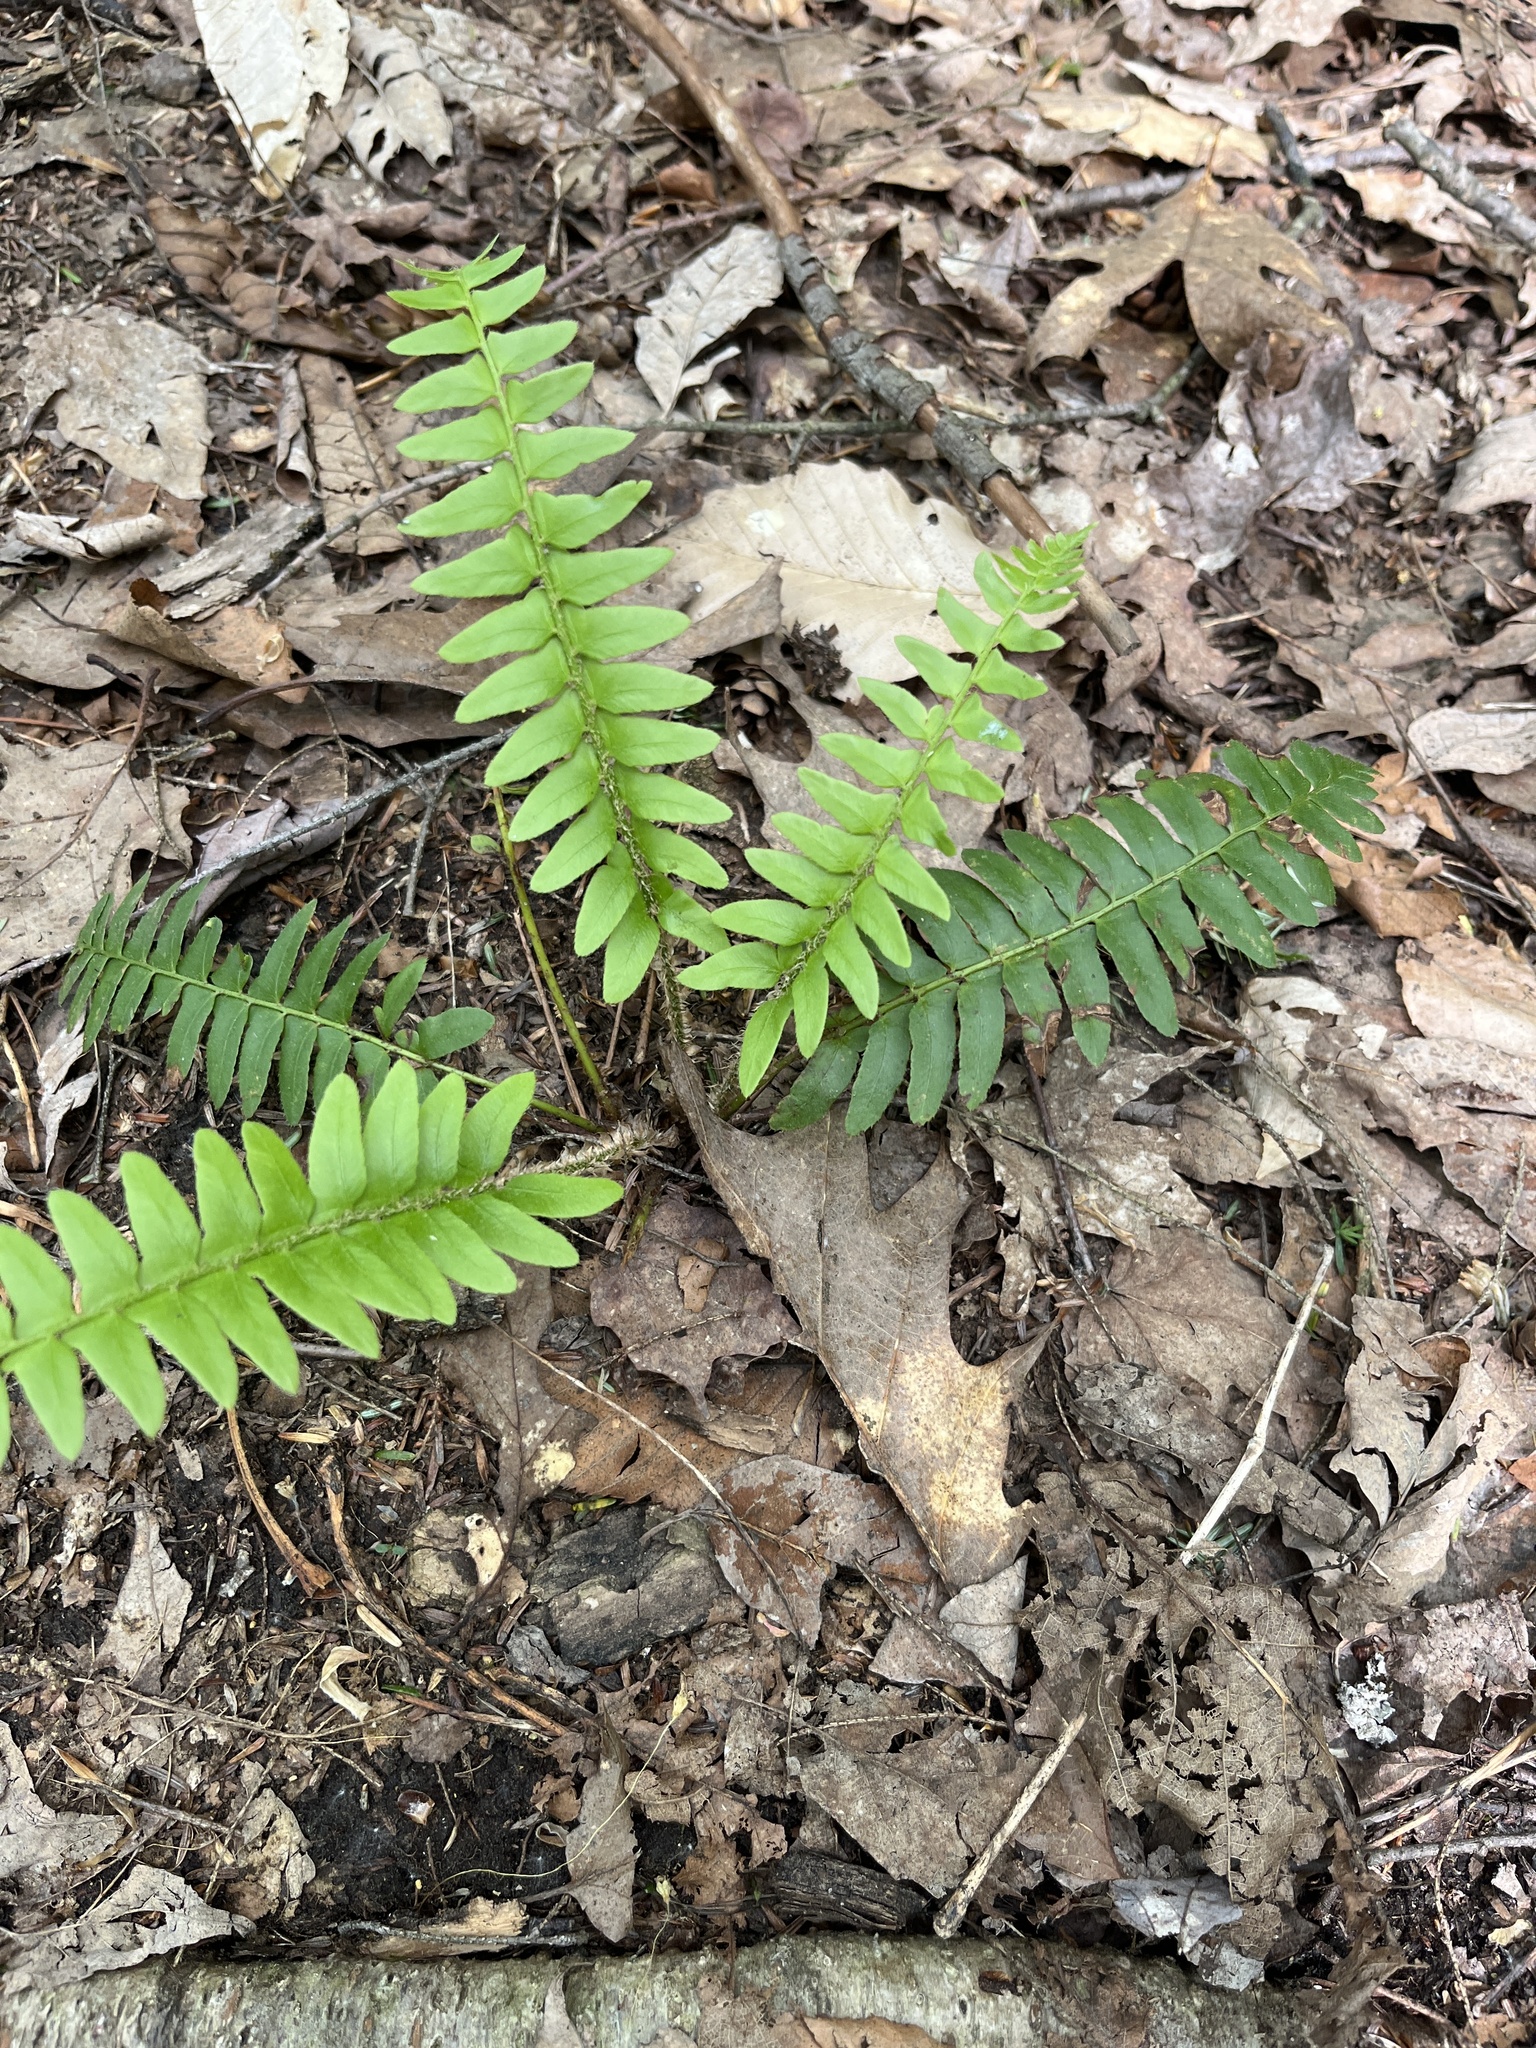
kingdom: Plantae
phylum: Tracheophyta
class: Polypodiopsida
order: Polypodiales
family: Dryopteridaceae
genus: Polystichum
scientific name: Polystichum acrostichoides
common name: Christmas fern
